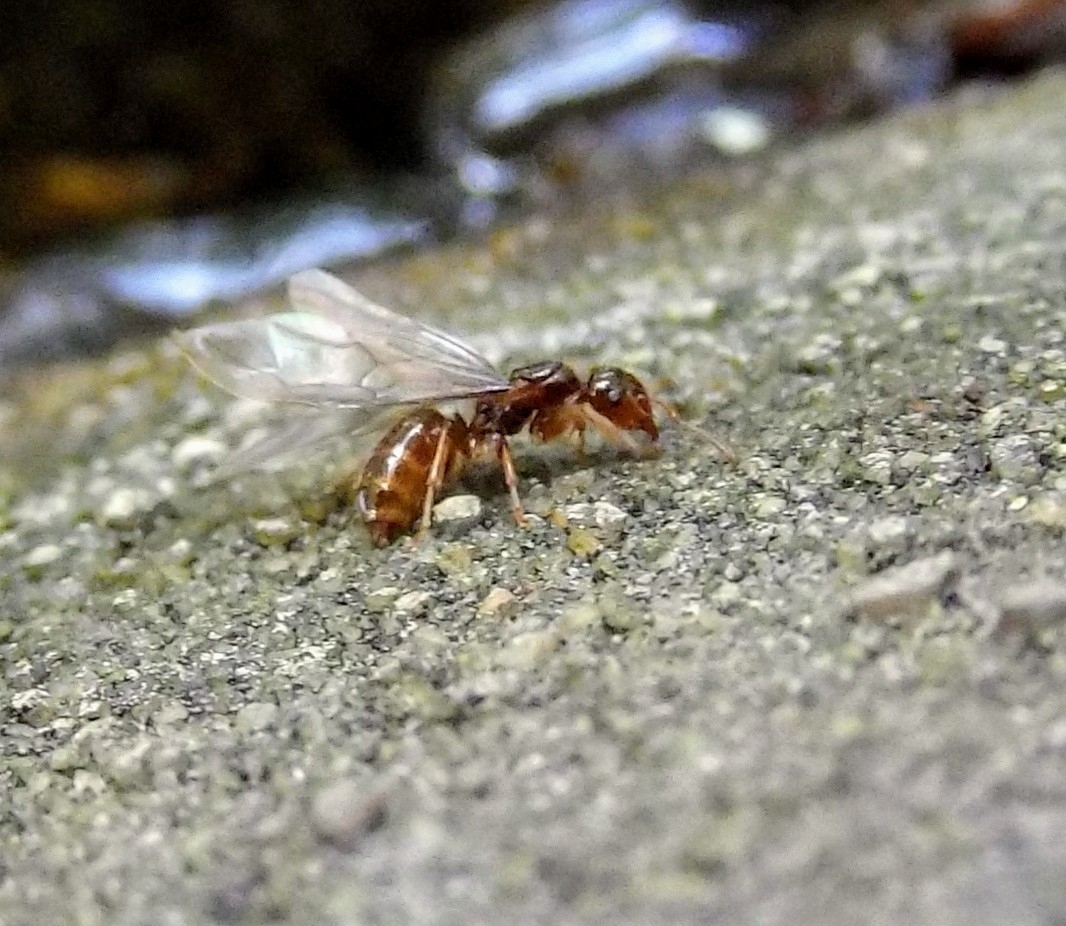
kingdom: Animalia
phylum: Arthropoda
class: Insecta
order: Hymenoptera
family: Formicidae
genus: Lasius
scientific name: Lasius claviger
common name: Common citronella ant
